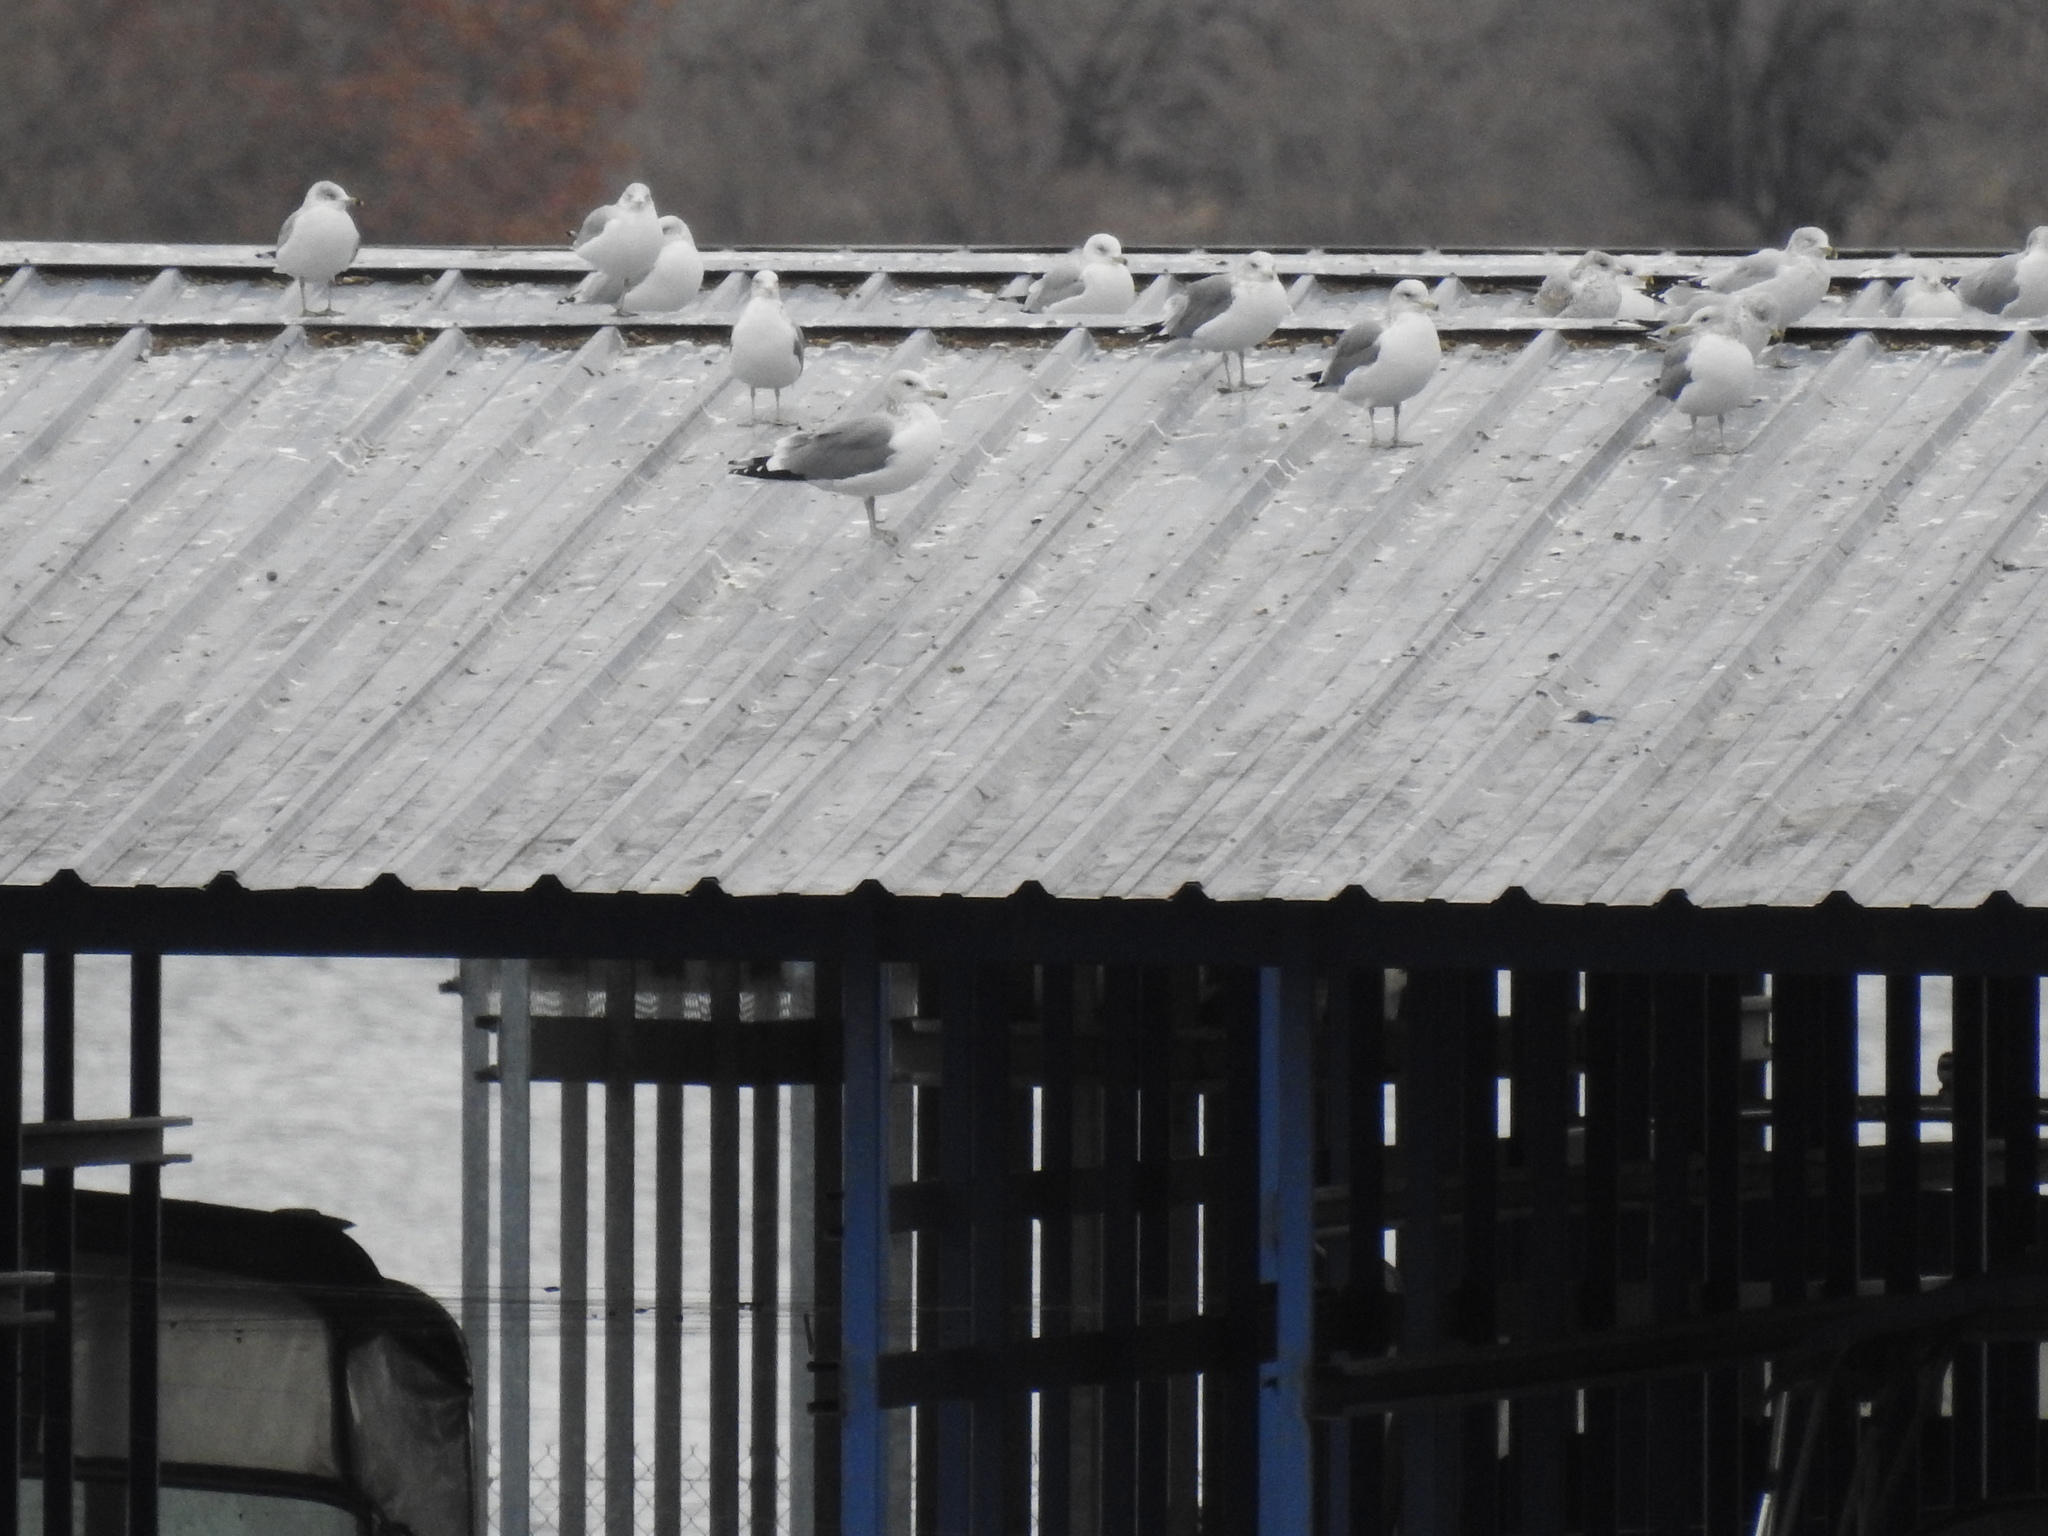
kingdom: Animalia
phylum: Chordata
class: Aves
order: Charadriiformes
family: Laridae
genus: Larus
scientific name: Larus californicus
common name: California gull
